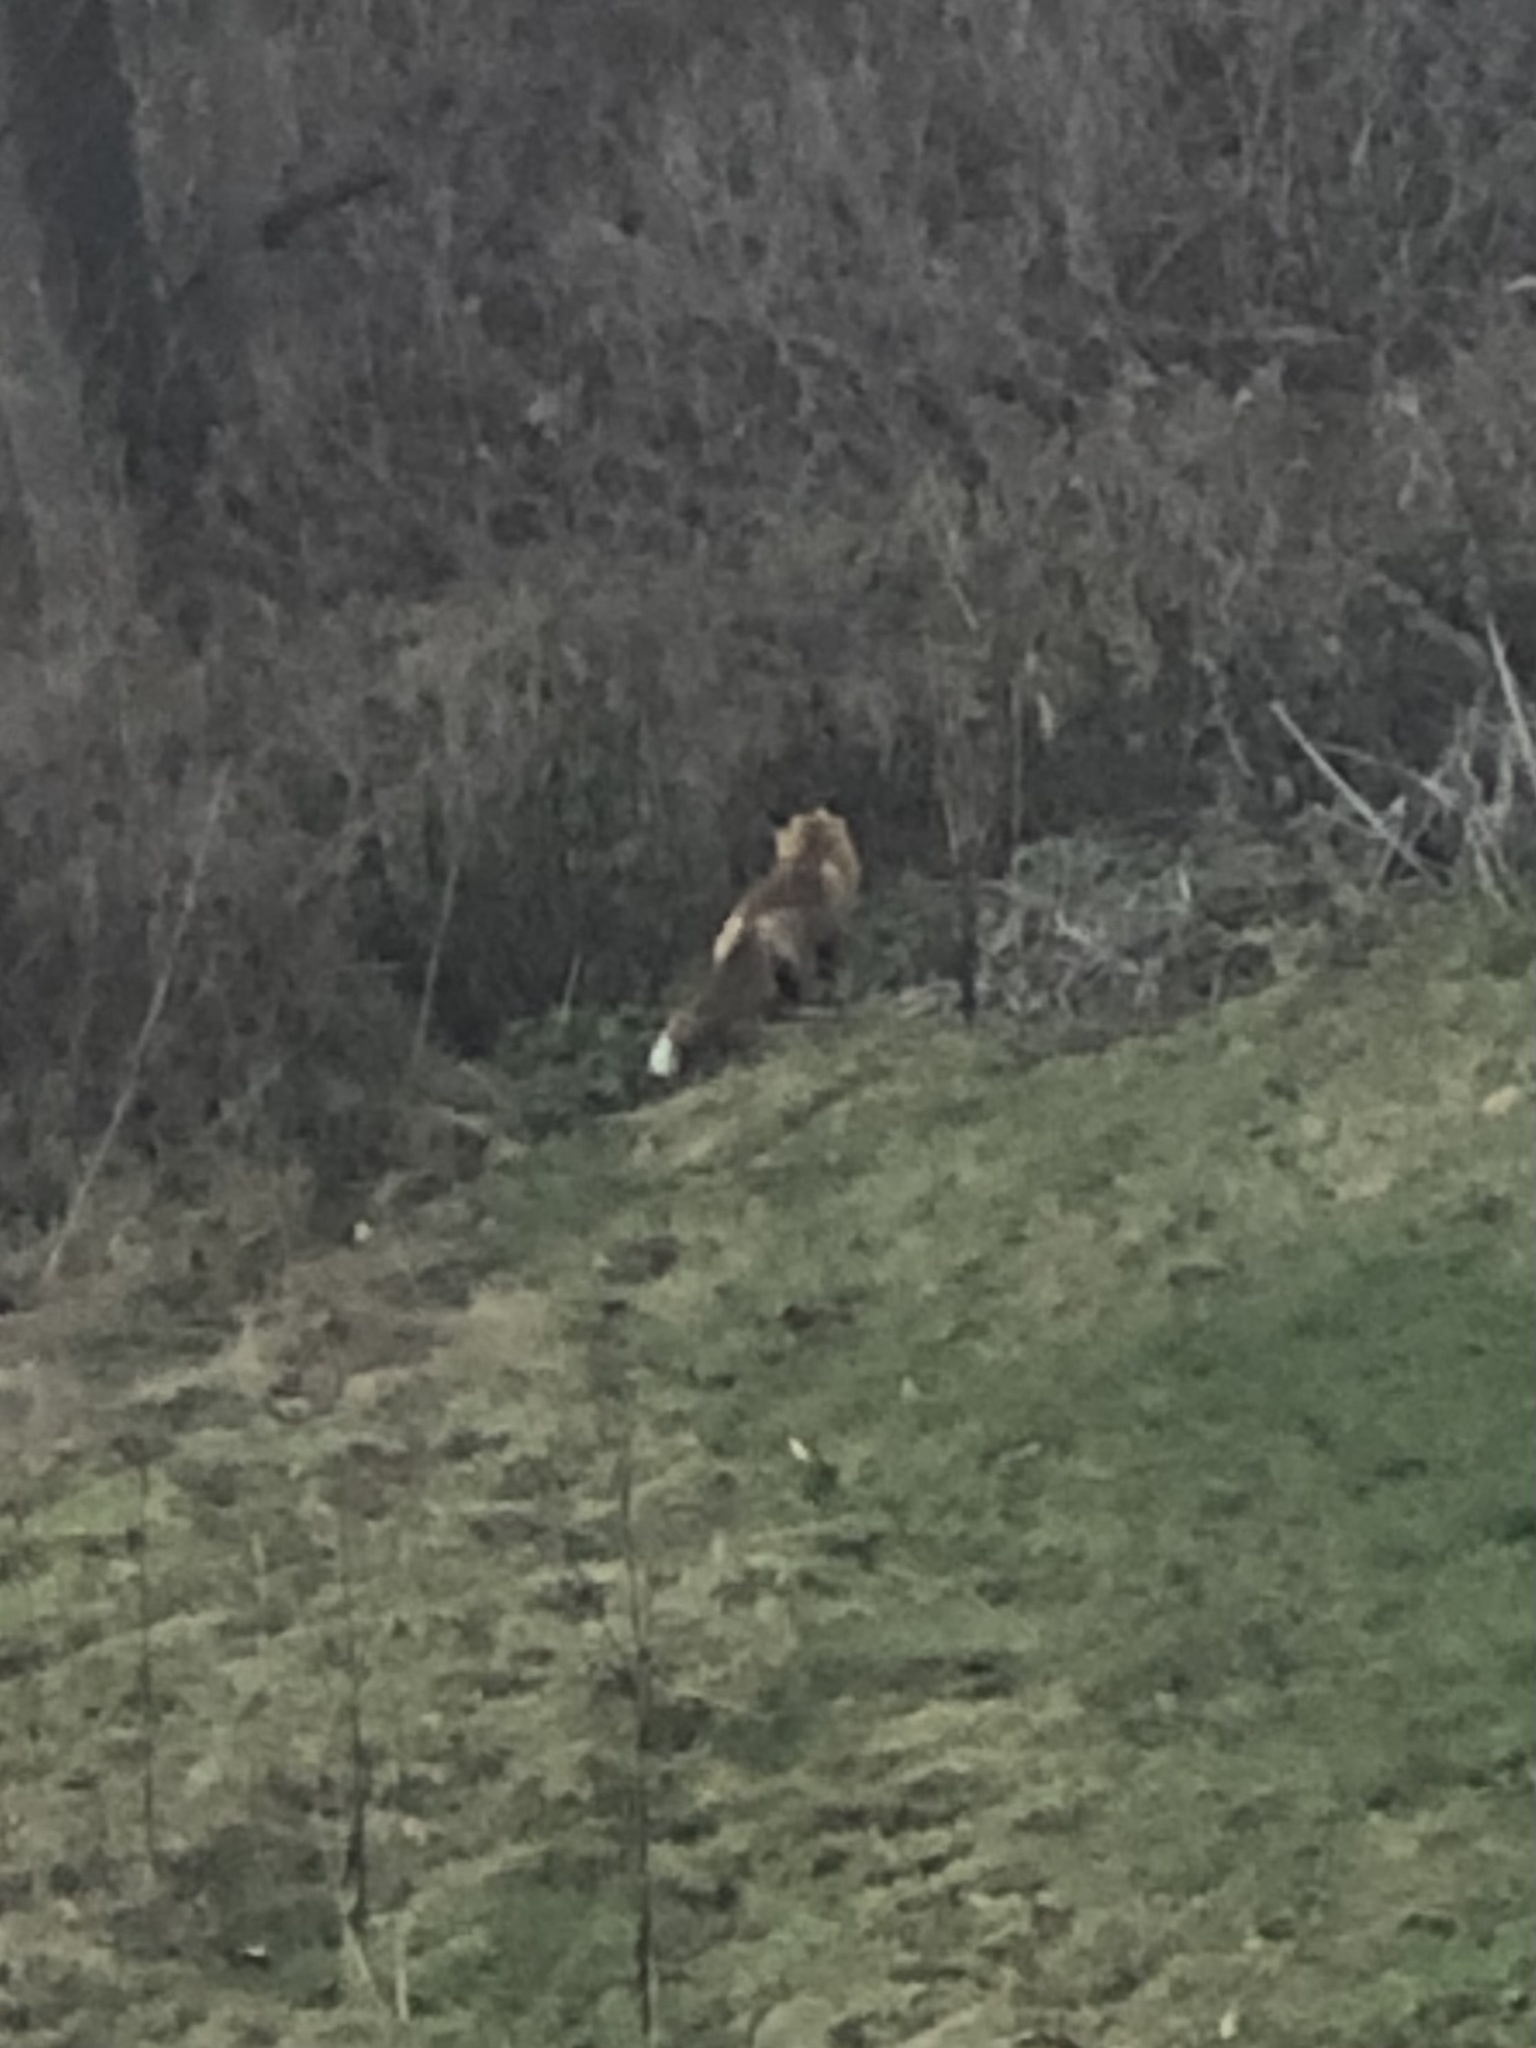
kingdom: Animalia
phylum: Chordata
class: Mammalia
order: Carnivora
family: Canidae
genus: Vulpes
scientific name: Vulpes vulpes
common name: Red fox
